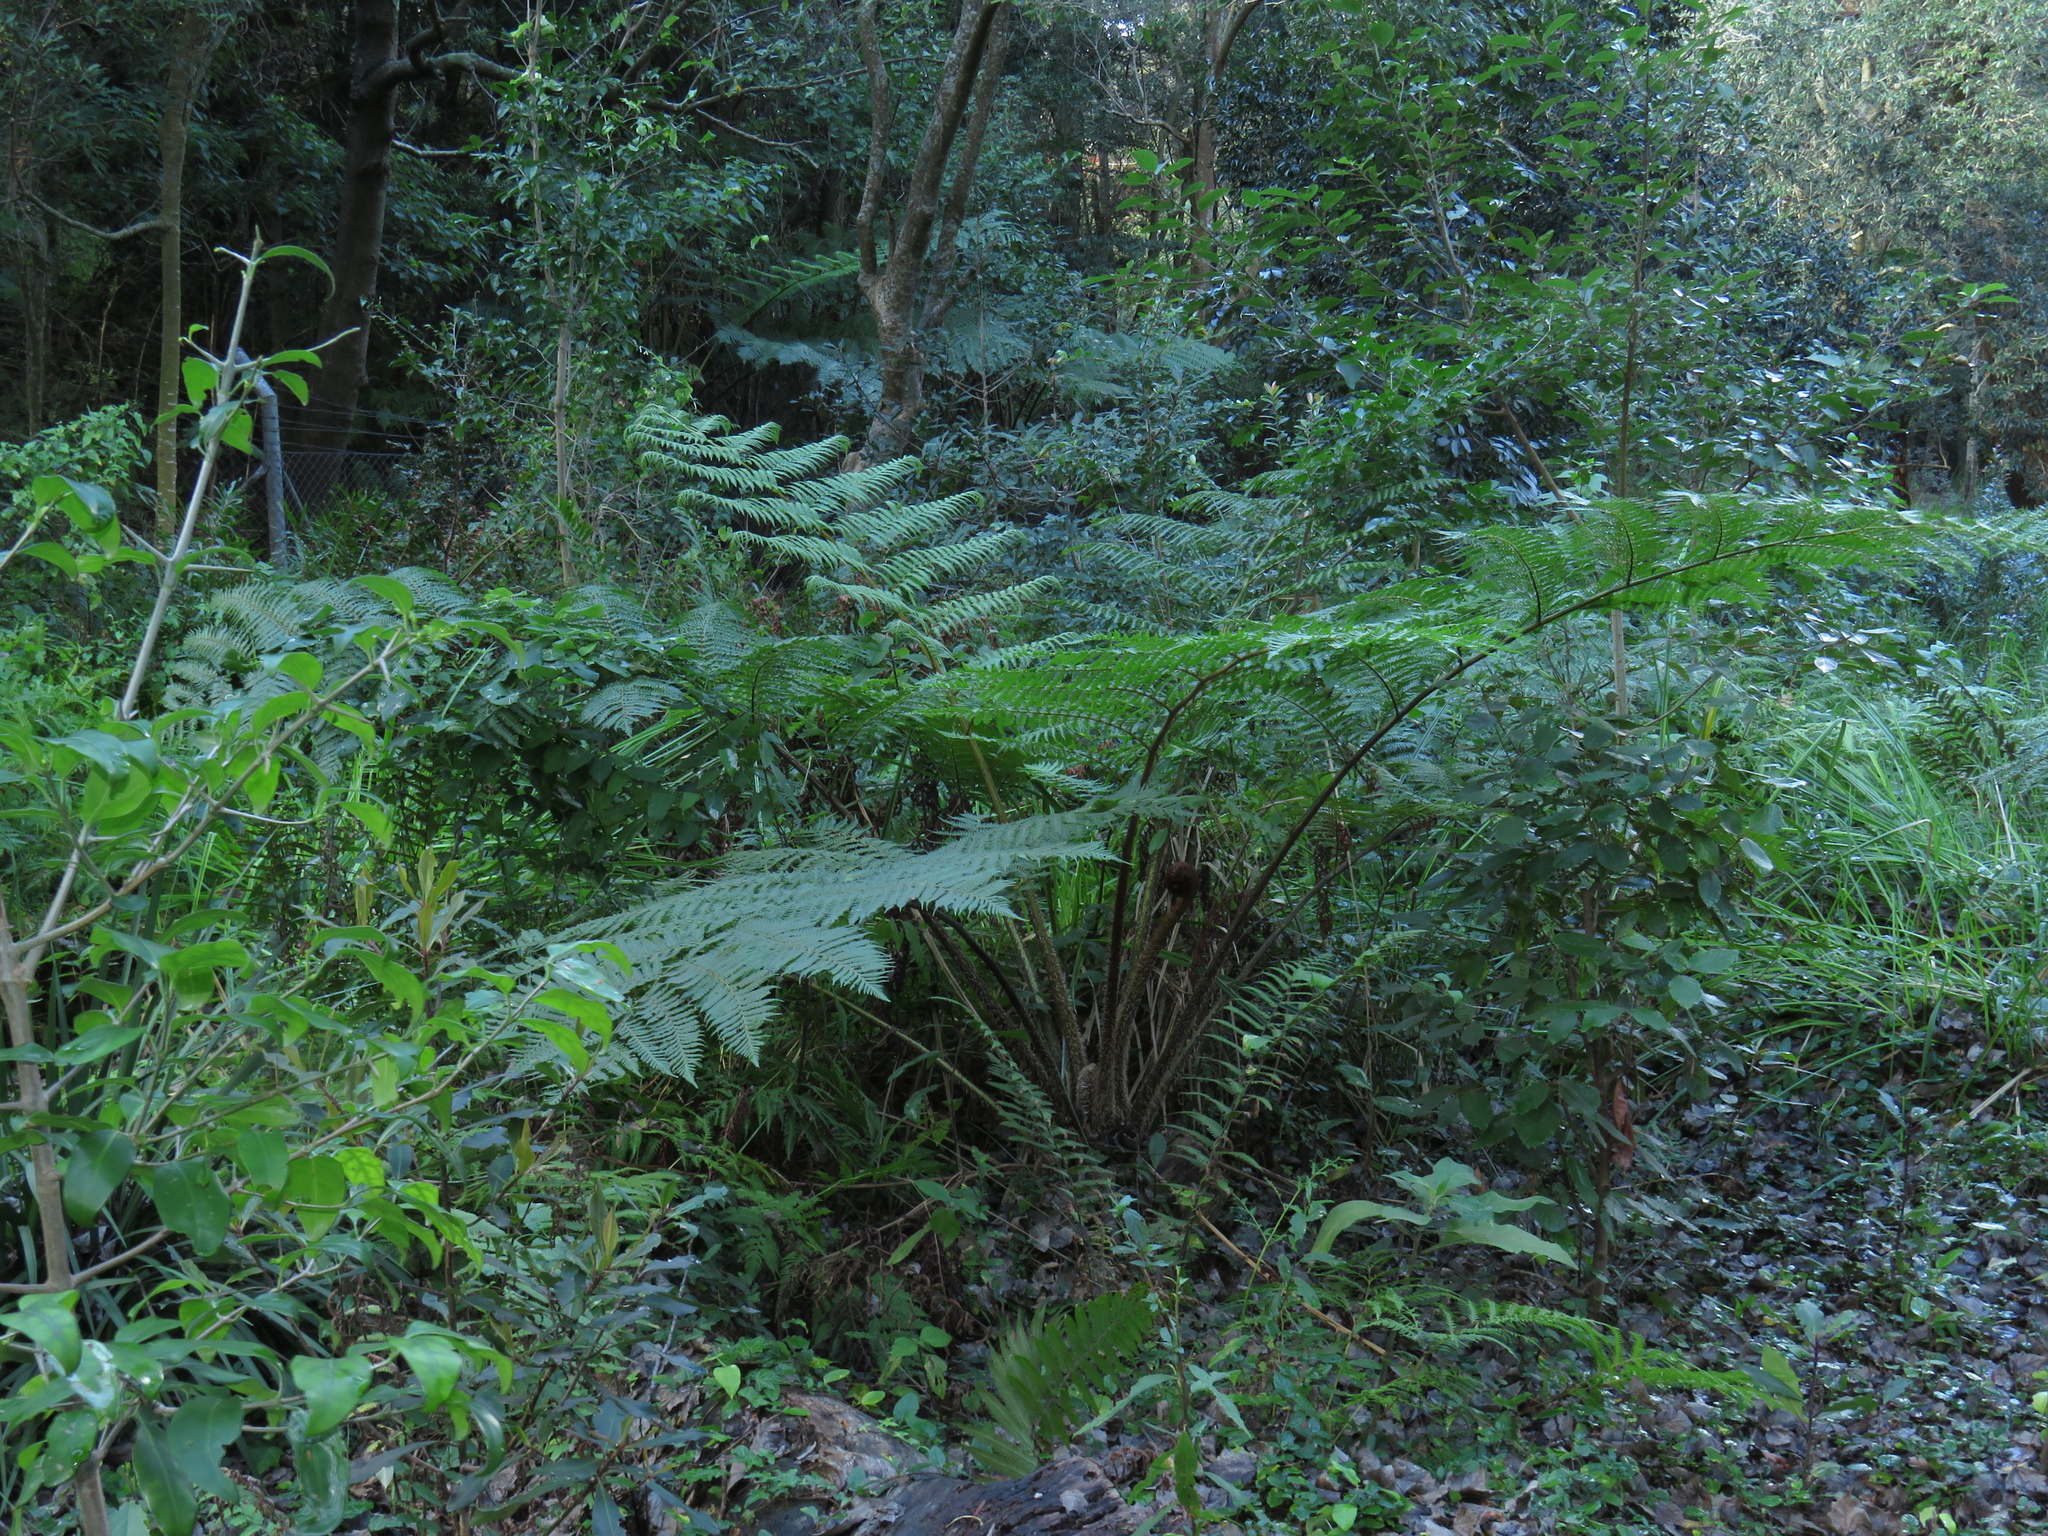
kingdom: Plantae
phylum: Tracheophyta
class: Polypodiopsida
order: Cyatheales
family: Cyatheaceae
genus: Sphaeropteris
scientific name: Sphaeropteris cooperi
